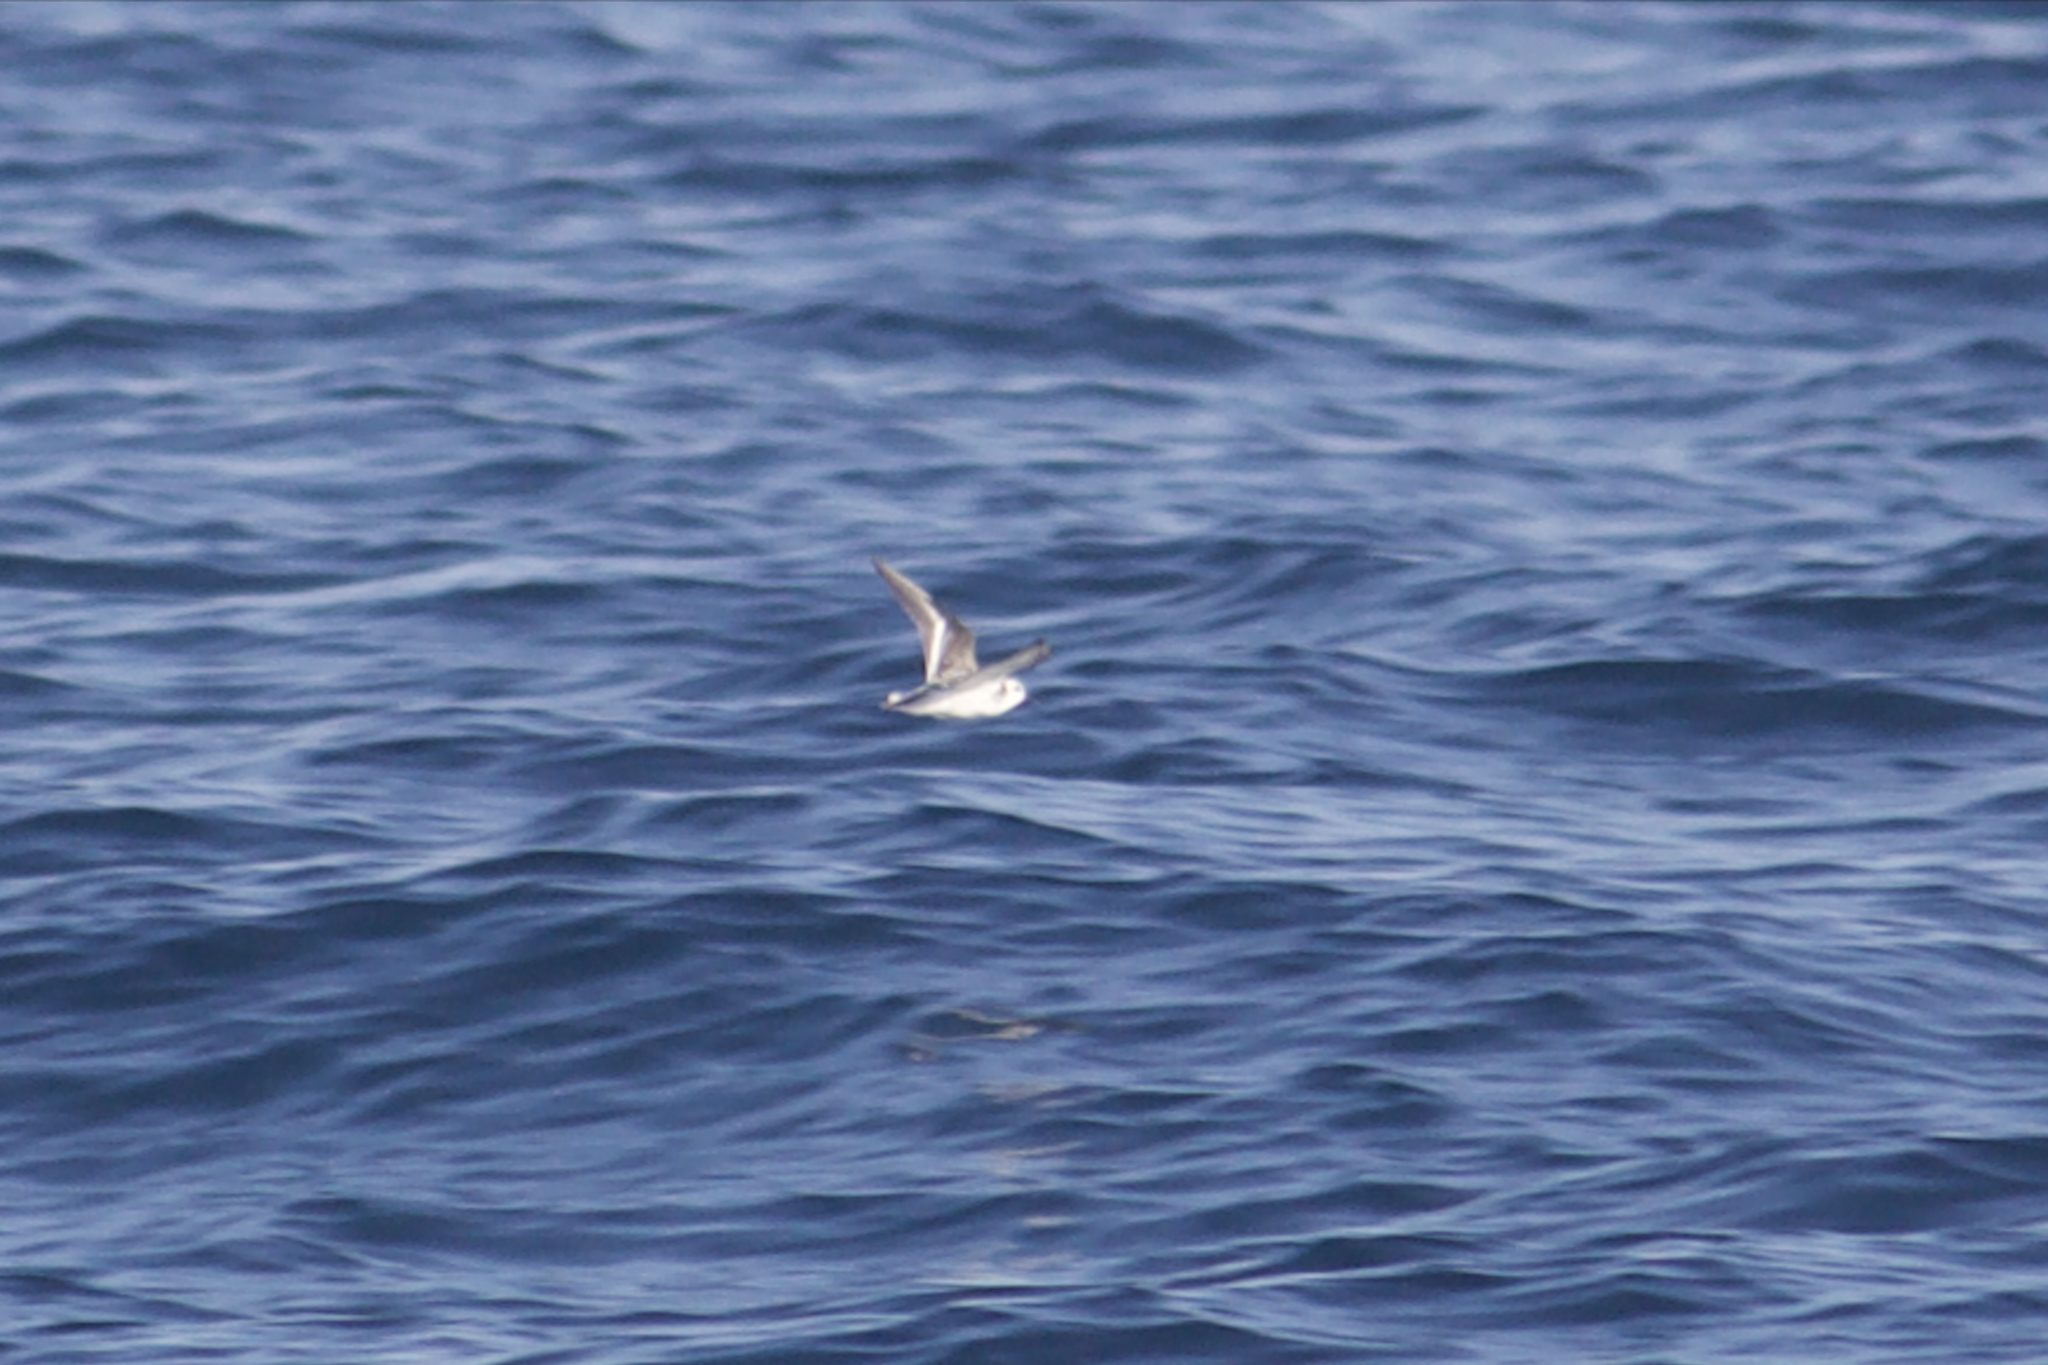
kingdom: Animalia
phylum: Chordata
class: Aves
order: Charadriiformes
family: Scolopacidae
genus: Calidris
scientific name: Calidris alba
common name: Sanderling
